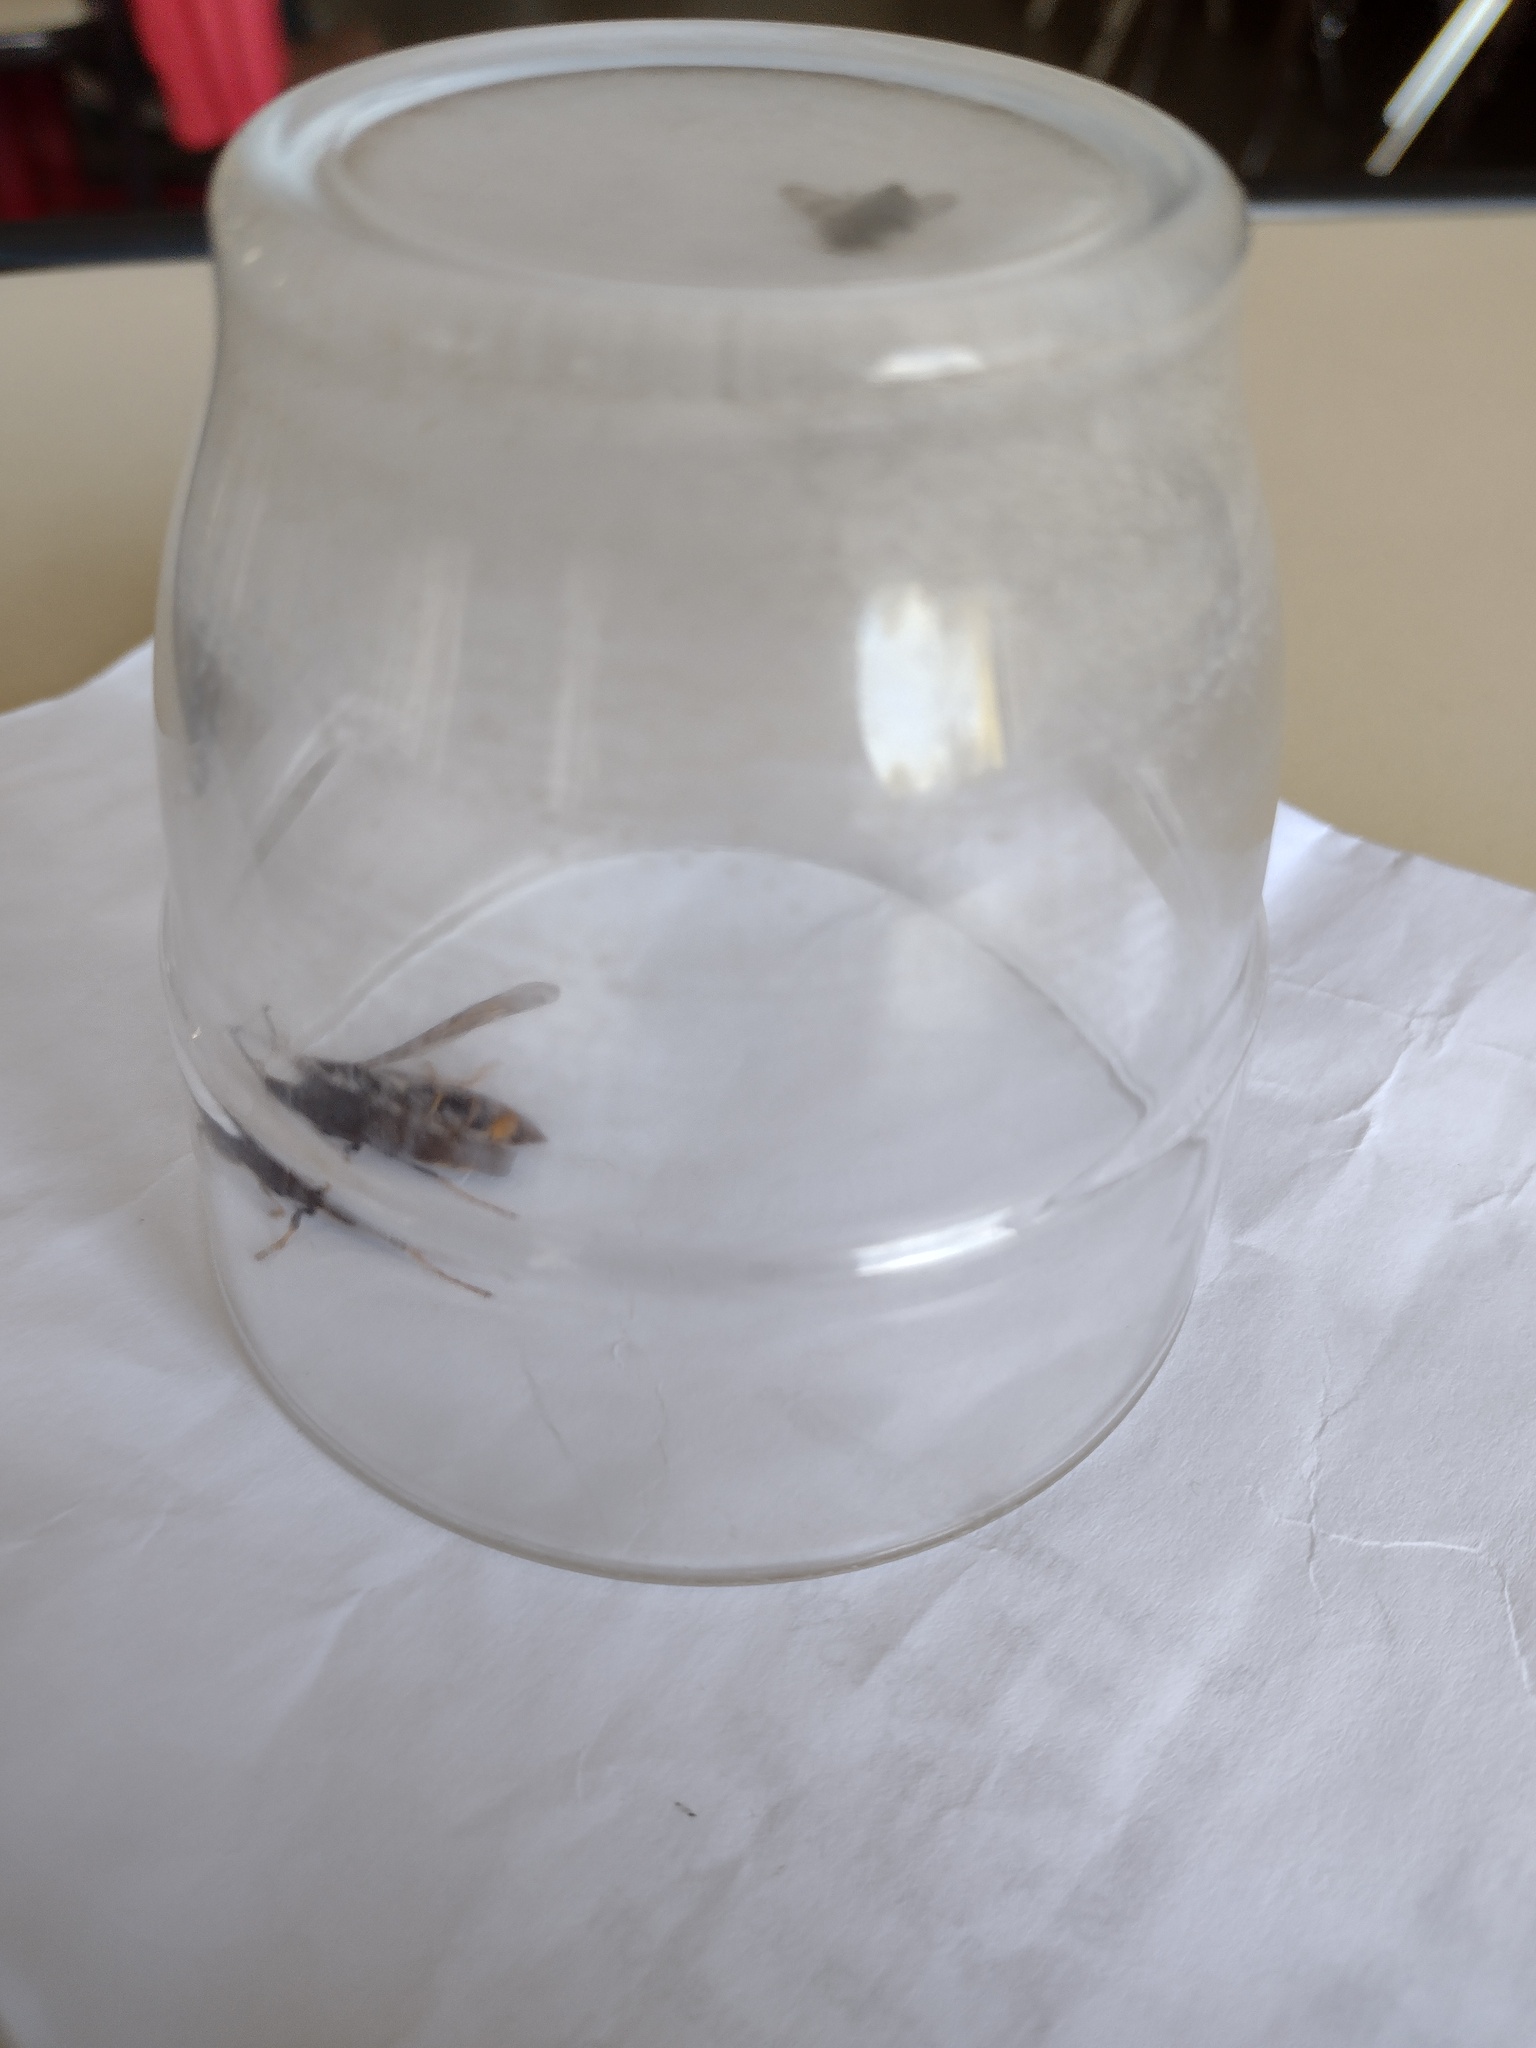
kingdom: Animalia
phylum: Arthropoda
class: Insecta
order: Hymenoptera
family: Vespidae
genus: Vespa
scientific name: Vespa velutina
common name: Asian hornet
